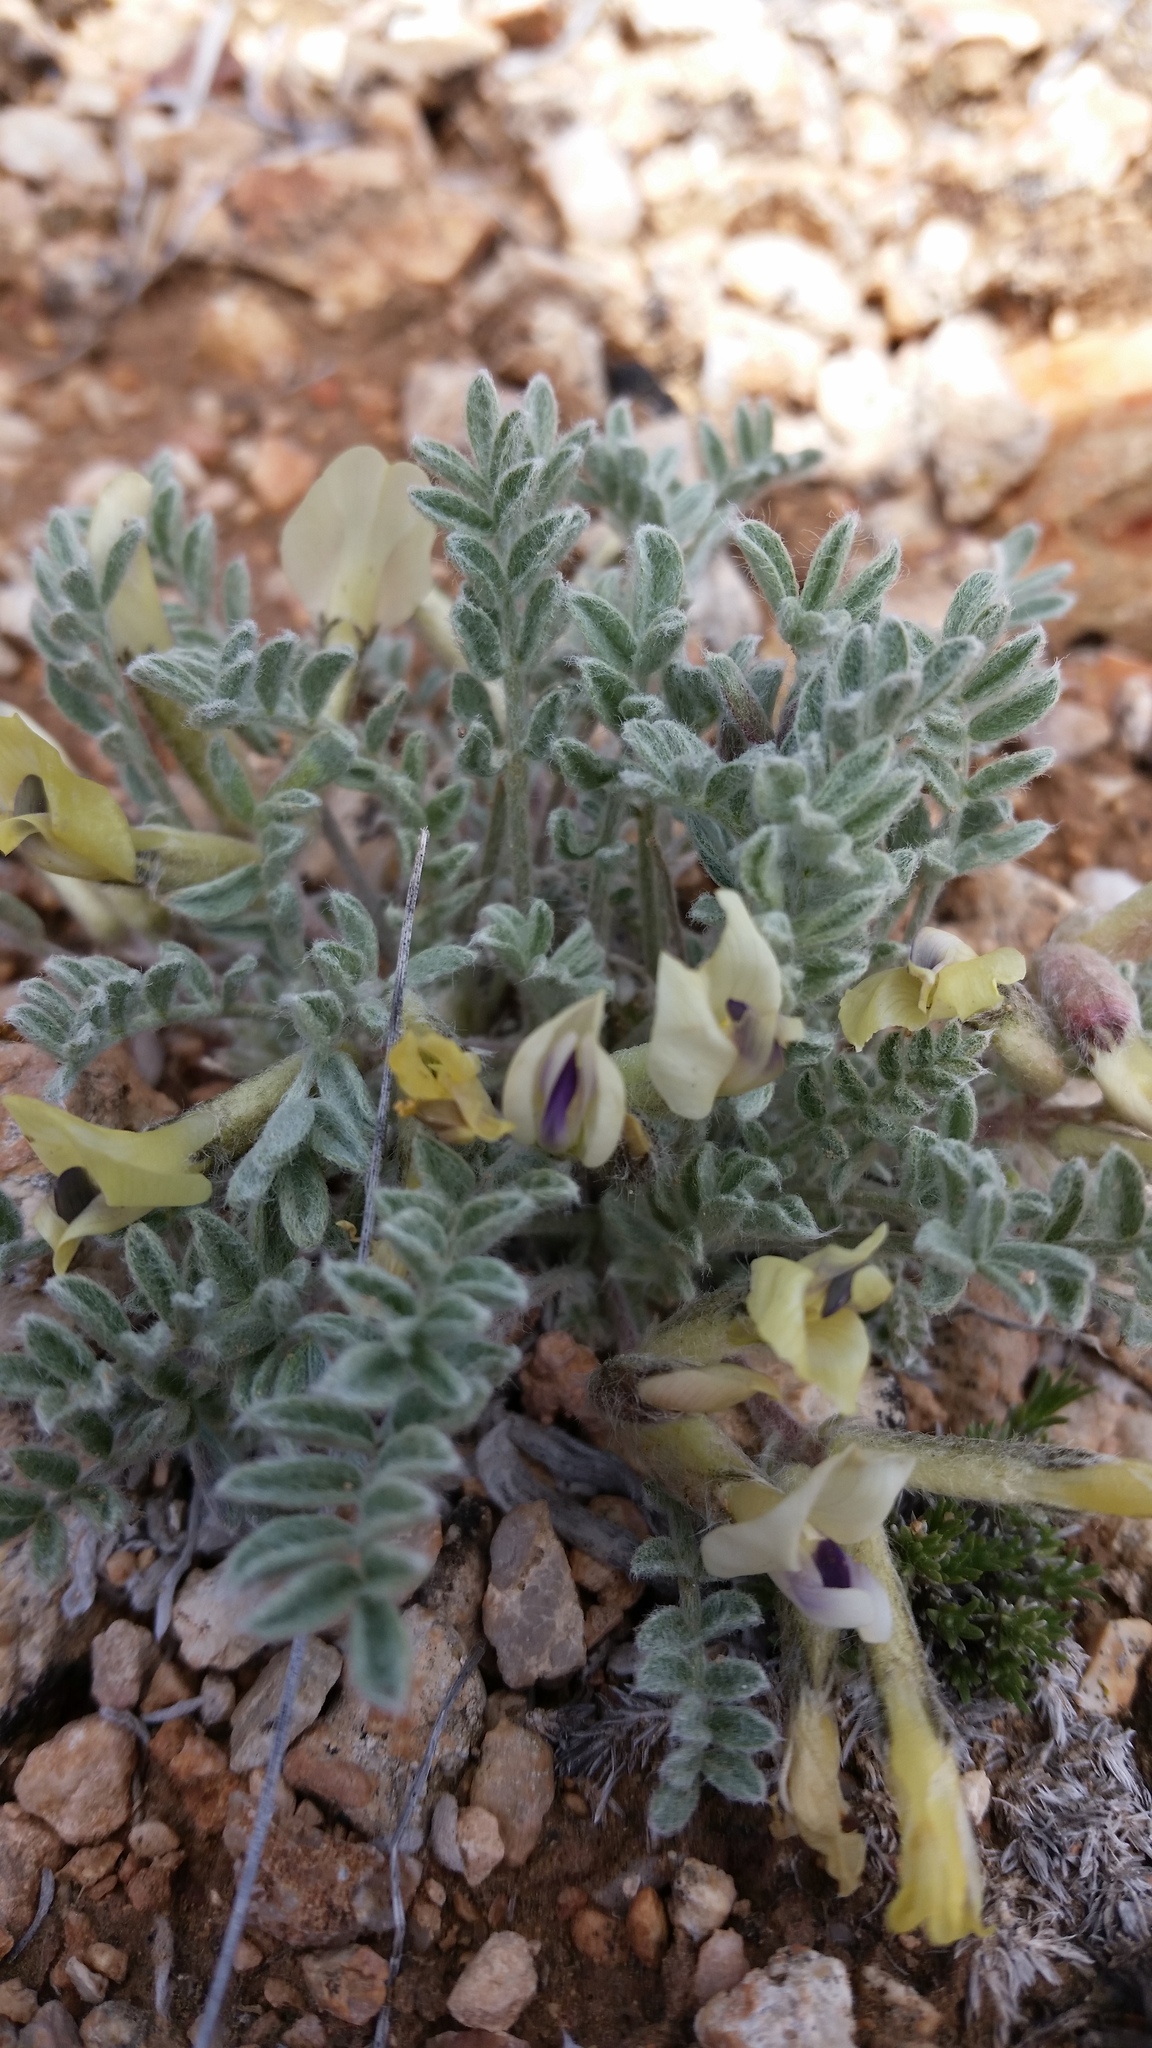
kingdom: Plantae
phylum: Tracheophyta
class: Magnoliopsida
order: Fabales
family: Fabaceae
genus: Astragalus
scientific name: Astragalus purshii
